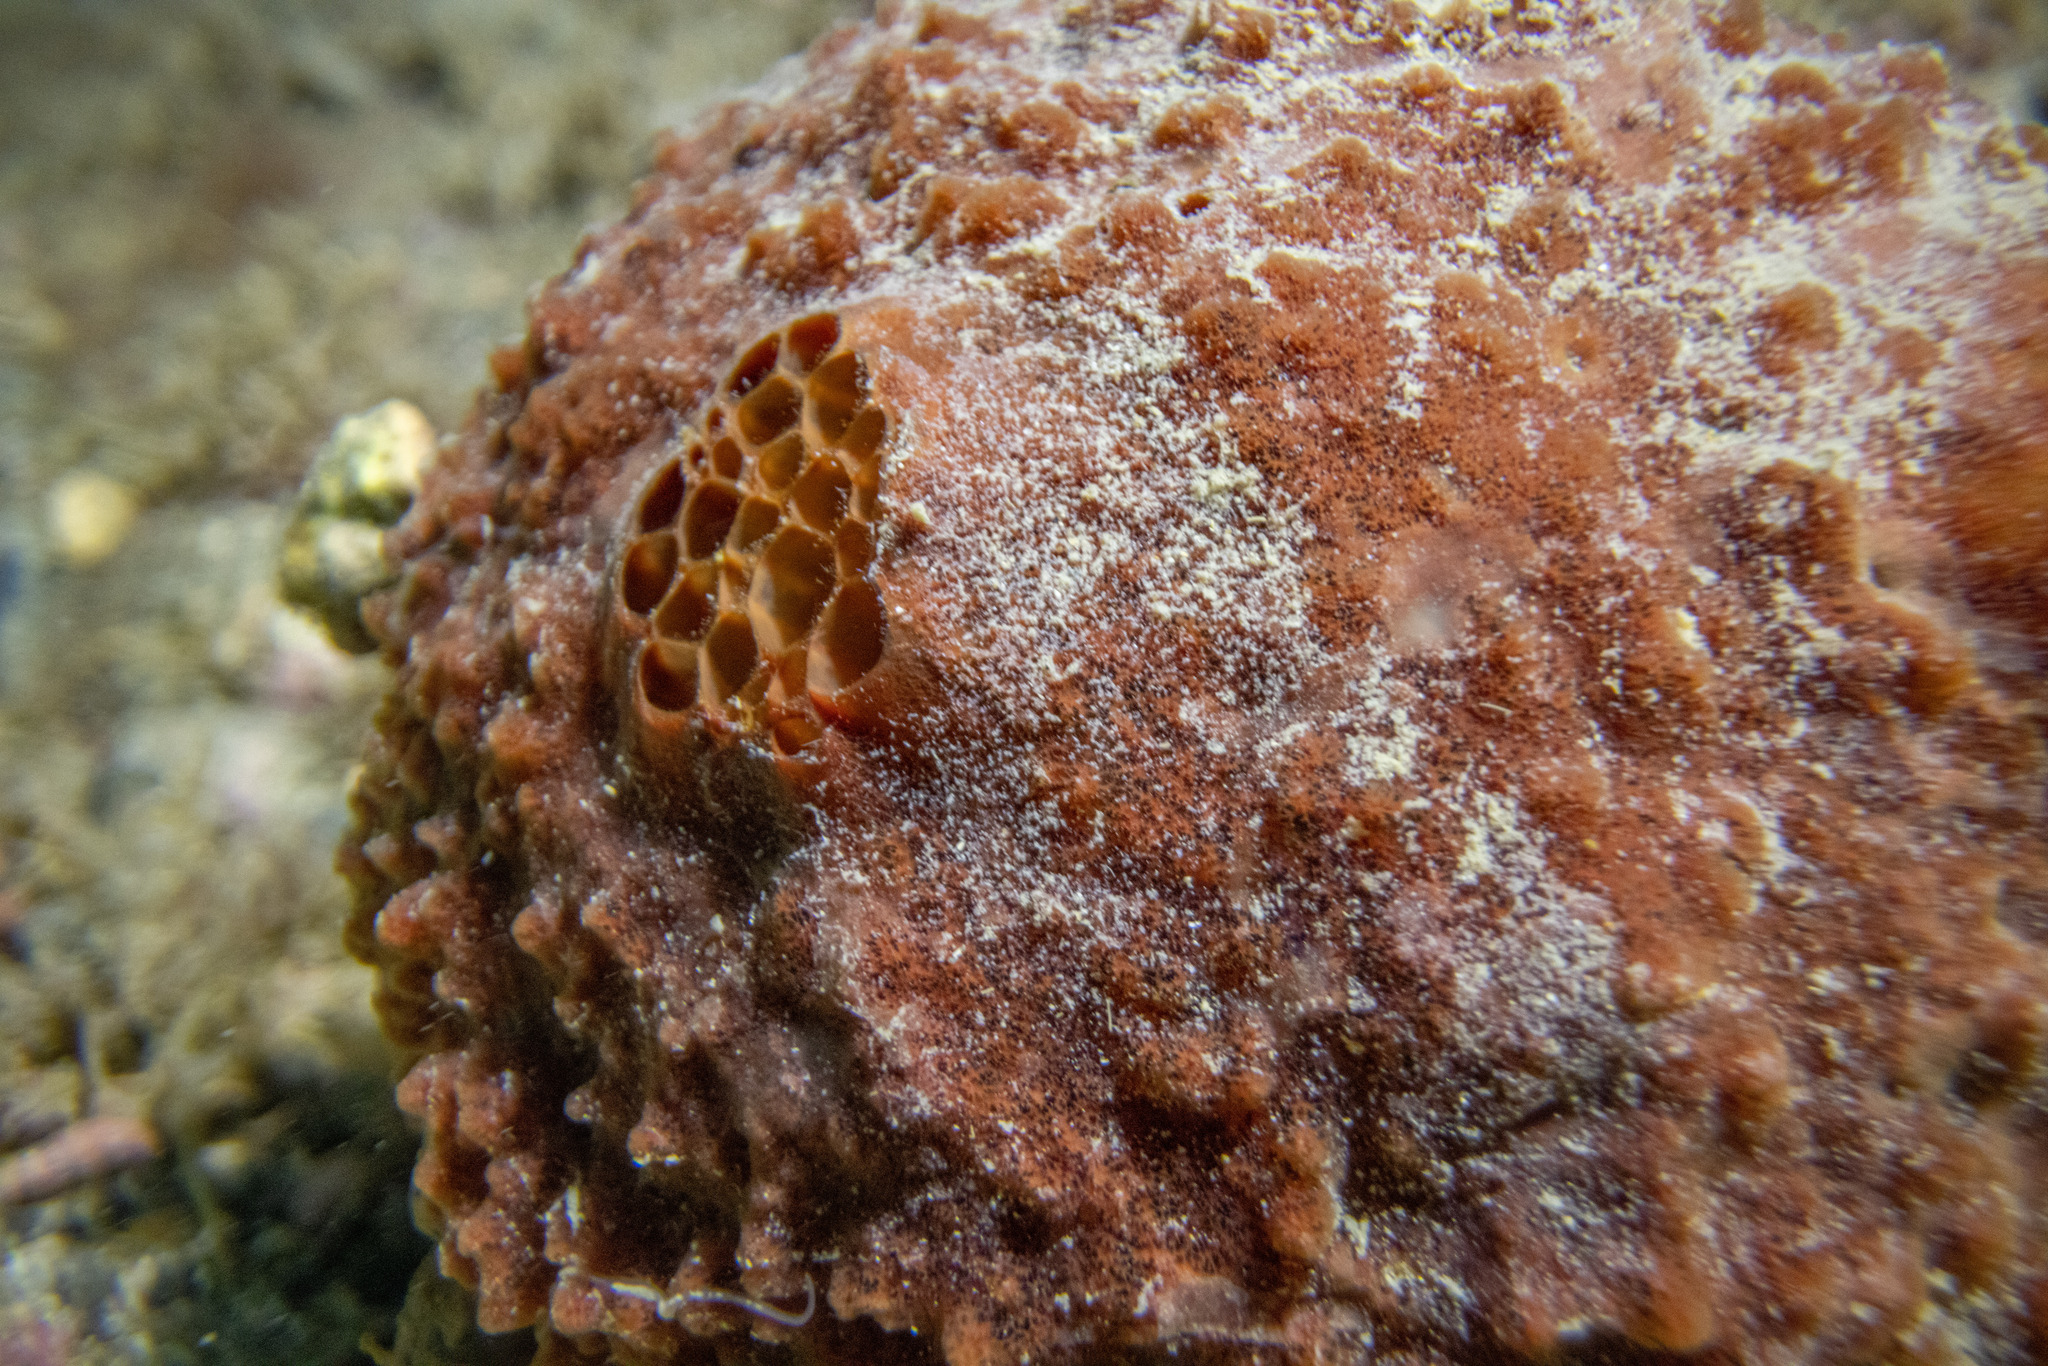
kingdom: Animalia
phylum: Porifera
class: Demospongiae
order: Suberitida
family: Suberitidae
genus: Aaptos
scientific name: Aaptos tenta
